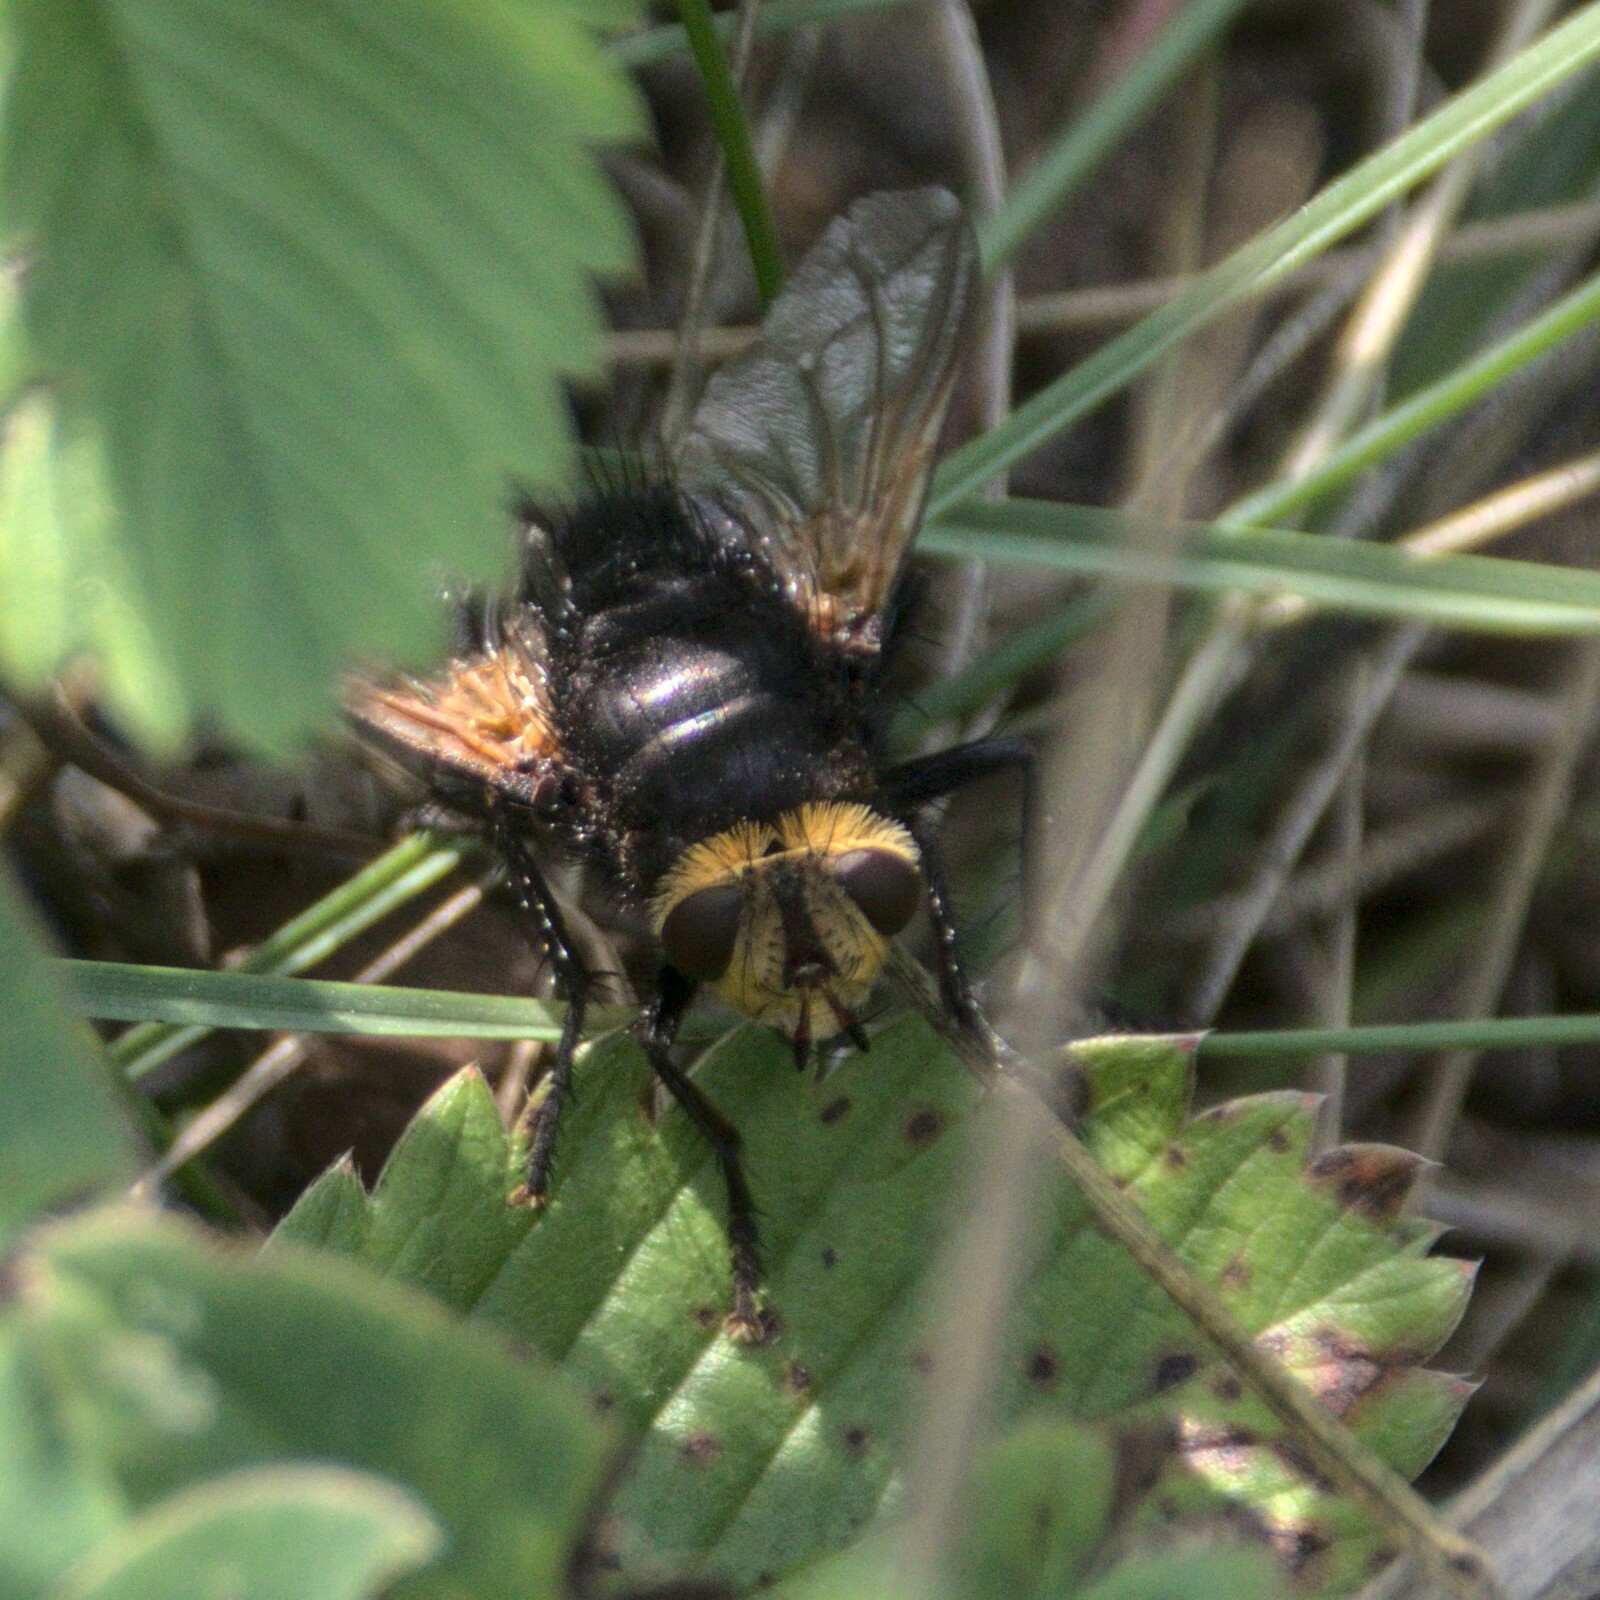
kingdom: Animalia
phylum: Arthropoda
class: Insecta
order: Diptera
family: Tachinidae
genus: Tachina
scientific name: Tachina grossa
